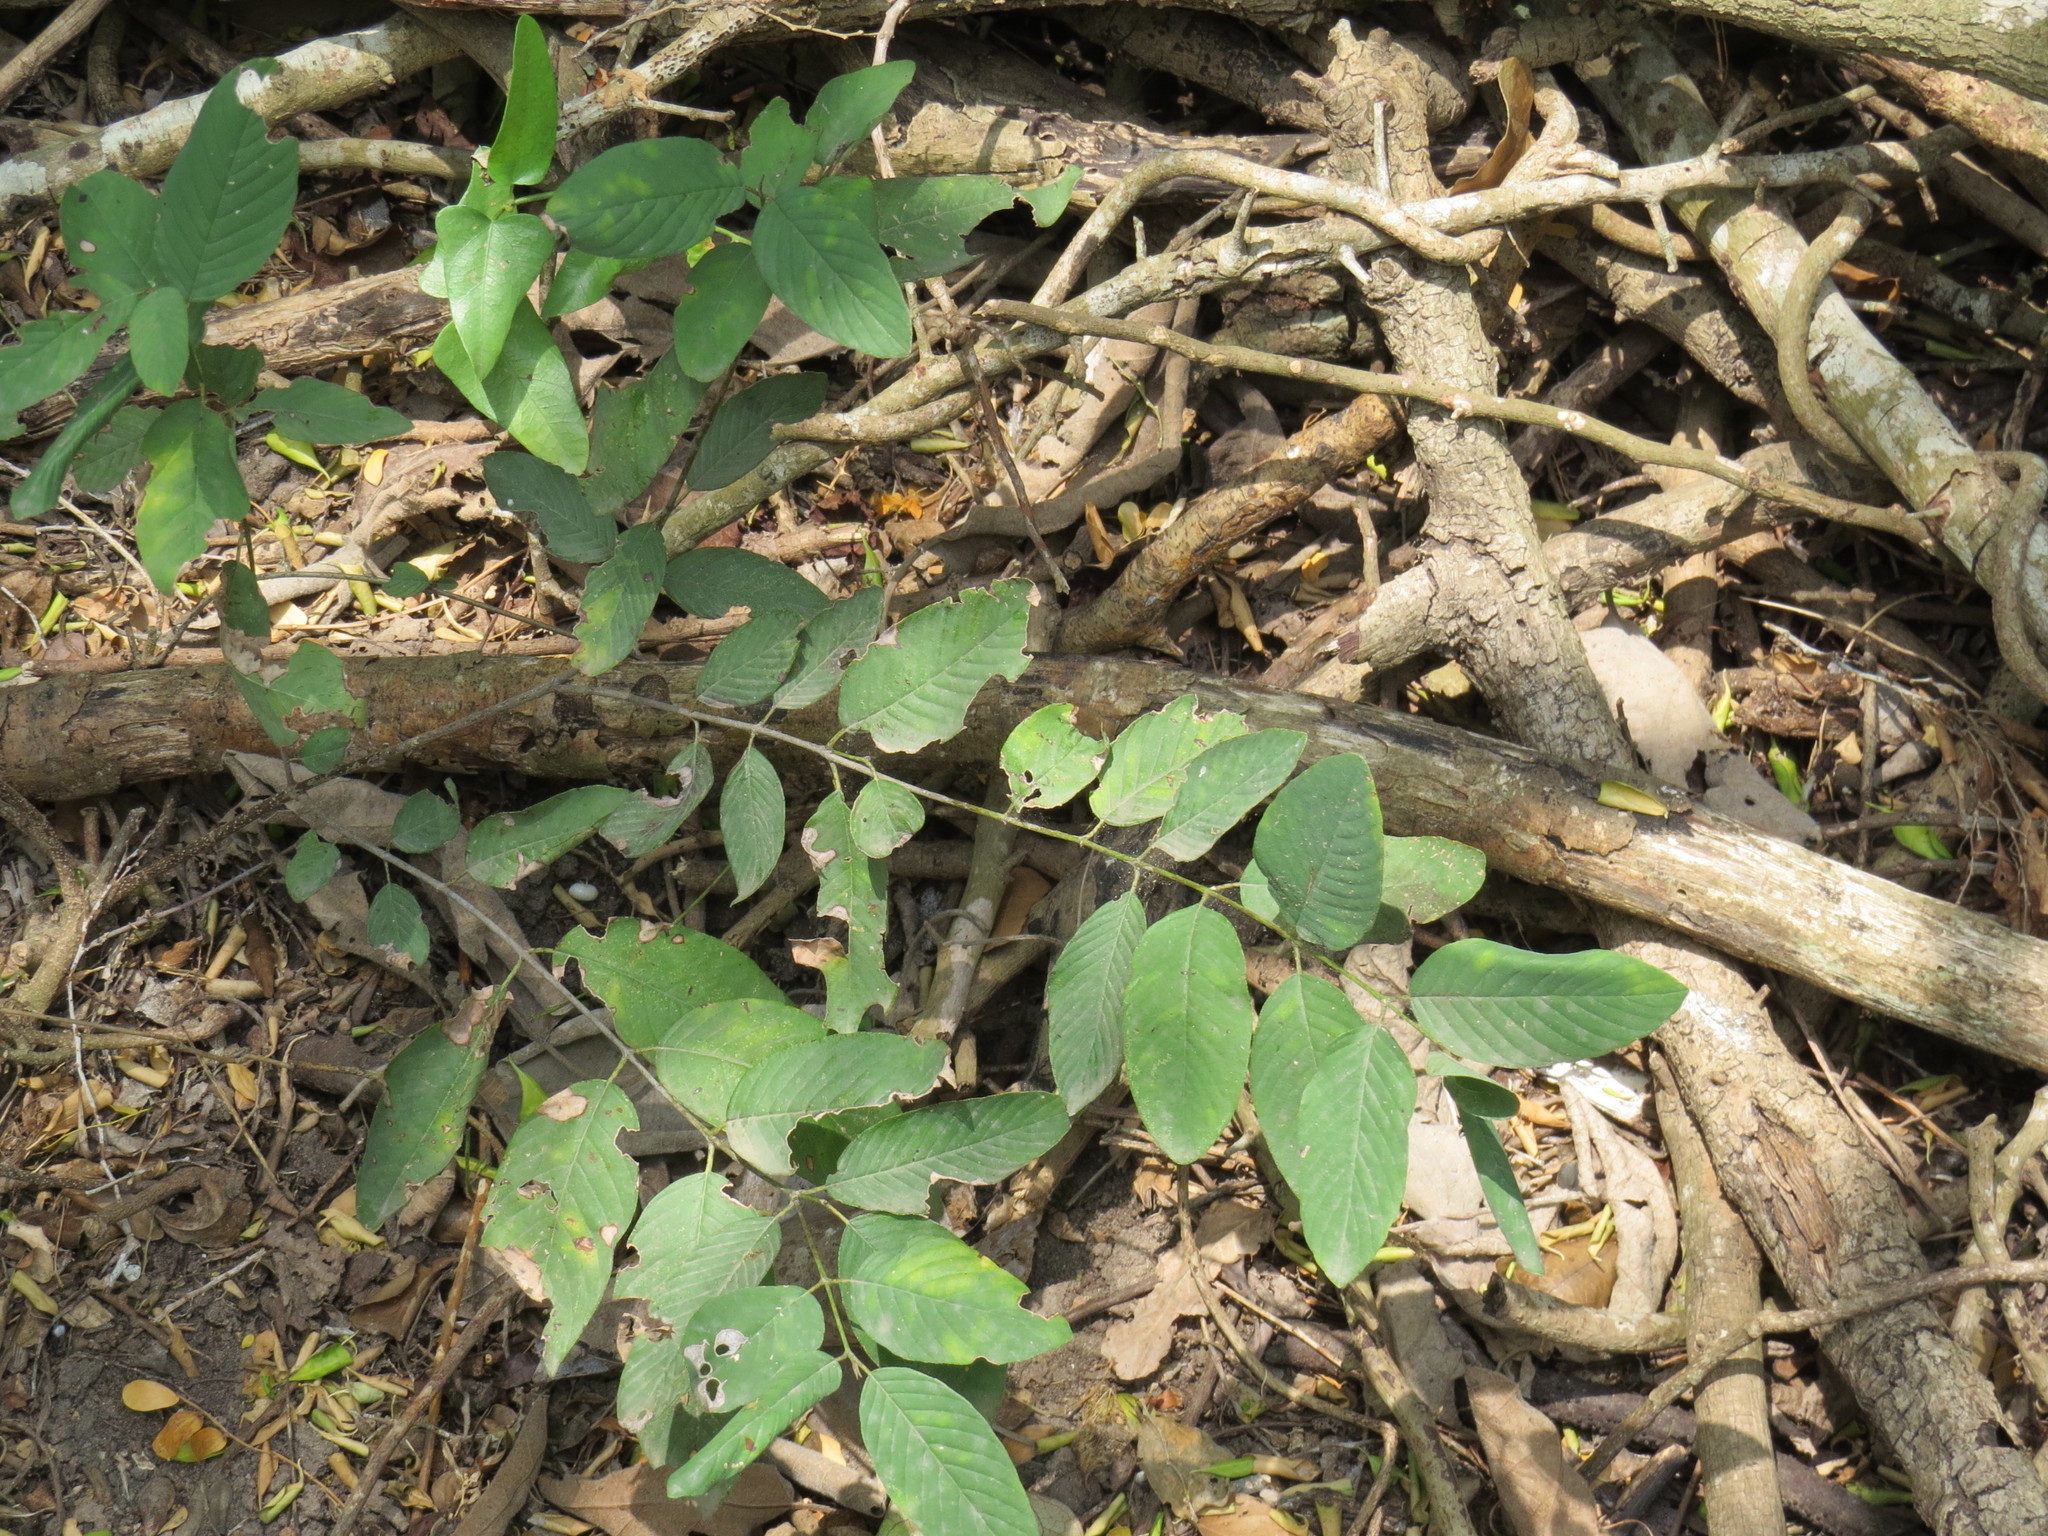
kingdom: Plantae
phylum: Tracheophyta
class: Magnoliopsida
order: Rosales
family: Rhamnaceae
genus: Karwinskia
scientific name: Karwinskia humboldtiana
